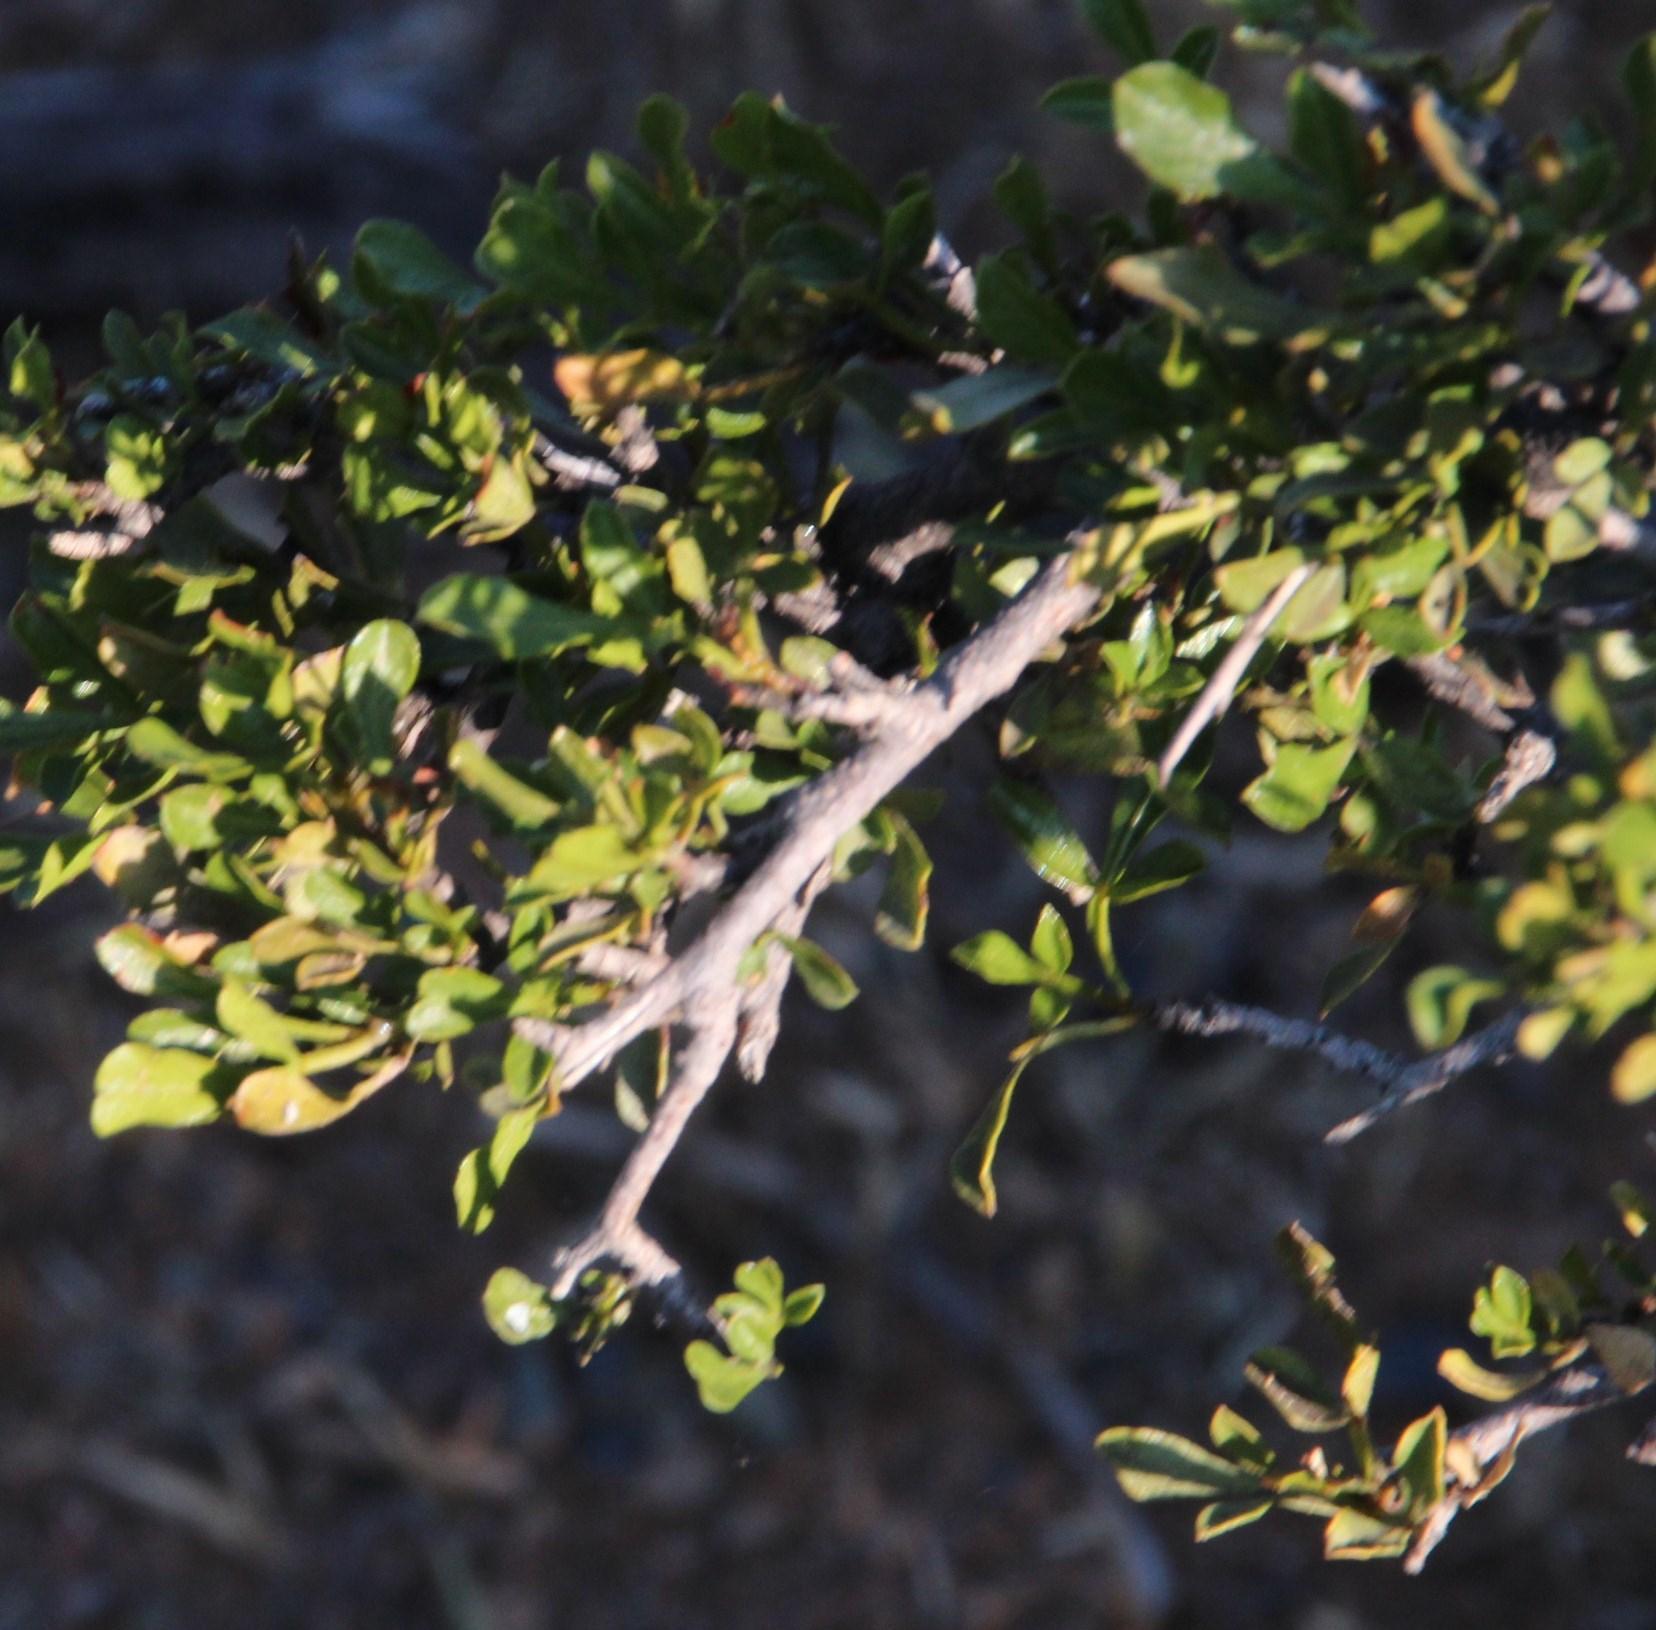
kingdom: Plantae
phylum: Tracheophyta
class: Magnoliopsida
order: Sapindales
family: Anacardiaceae
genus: Searsia
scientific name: Searsia burchellii
